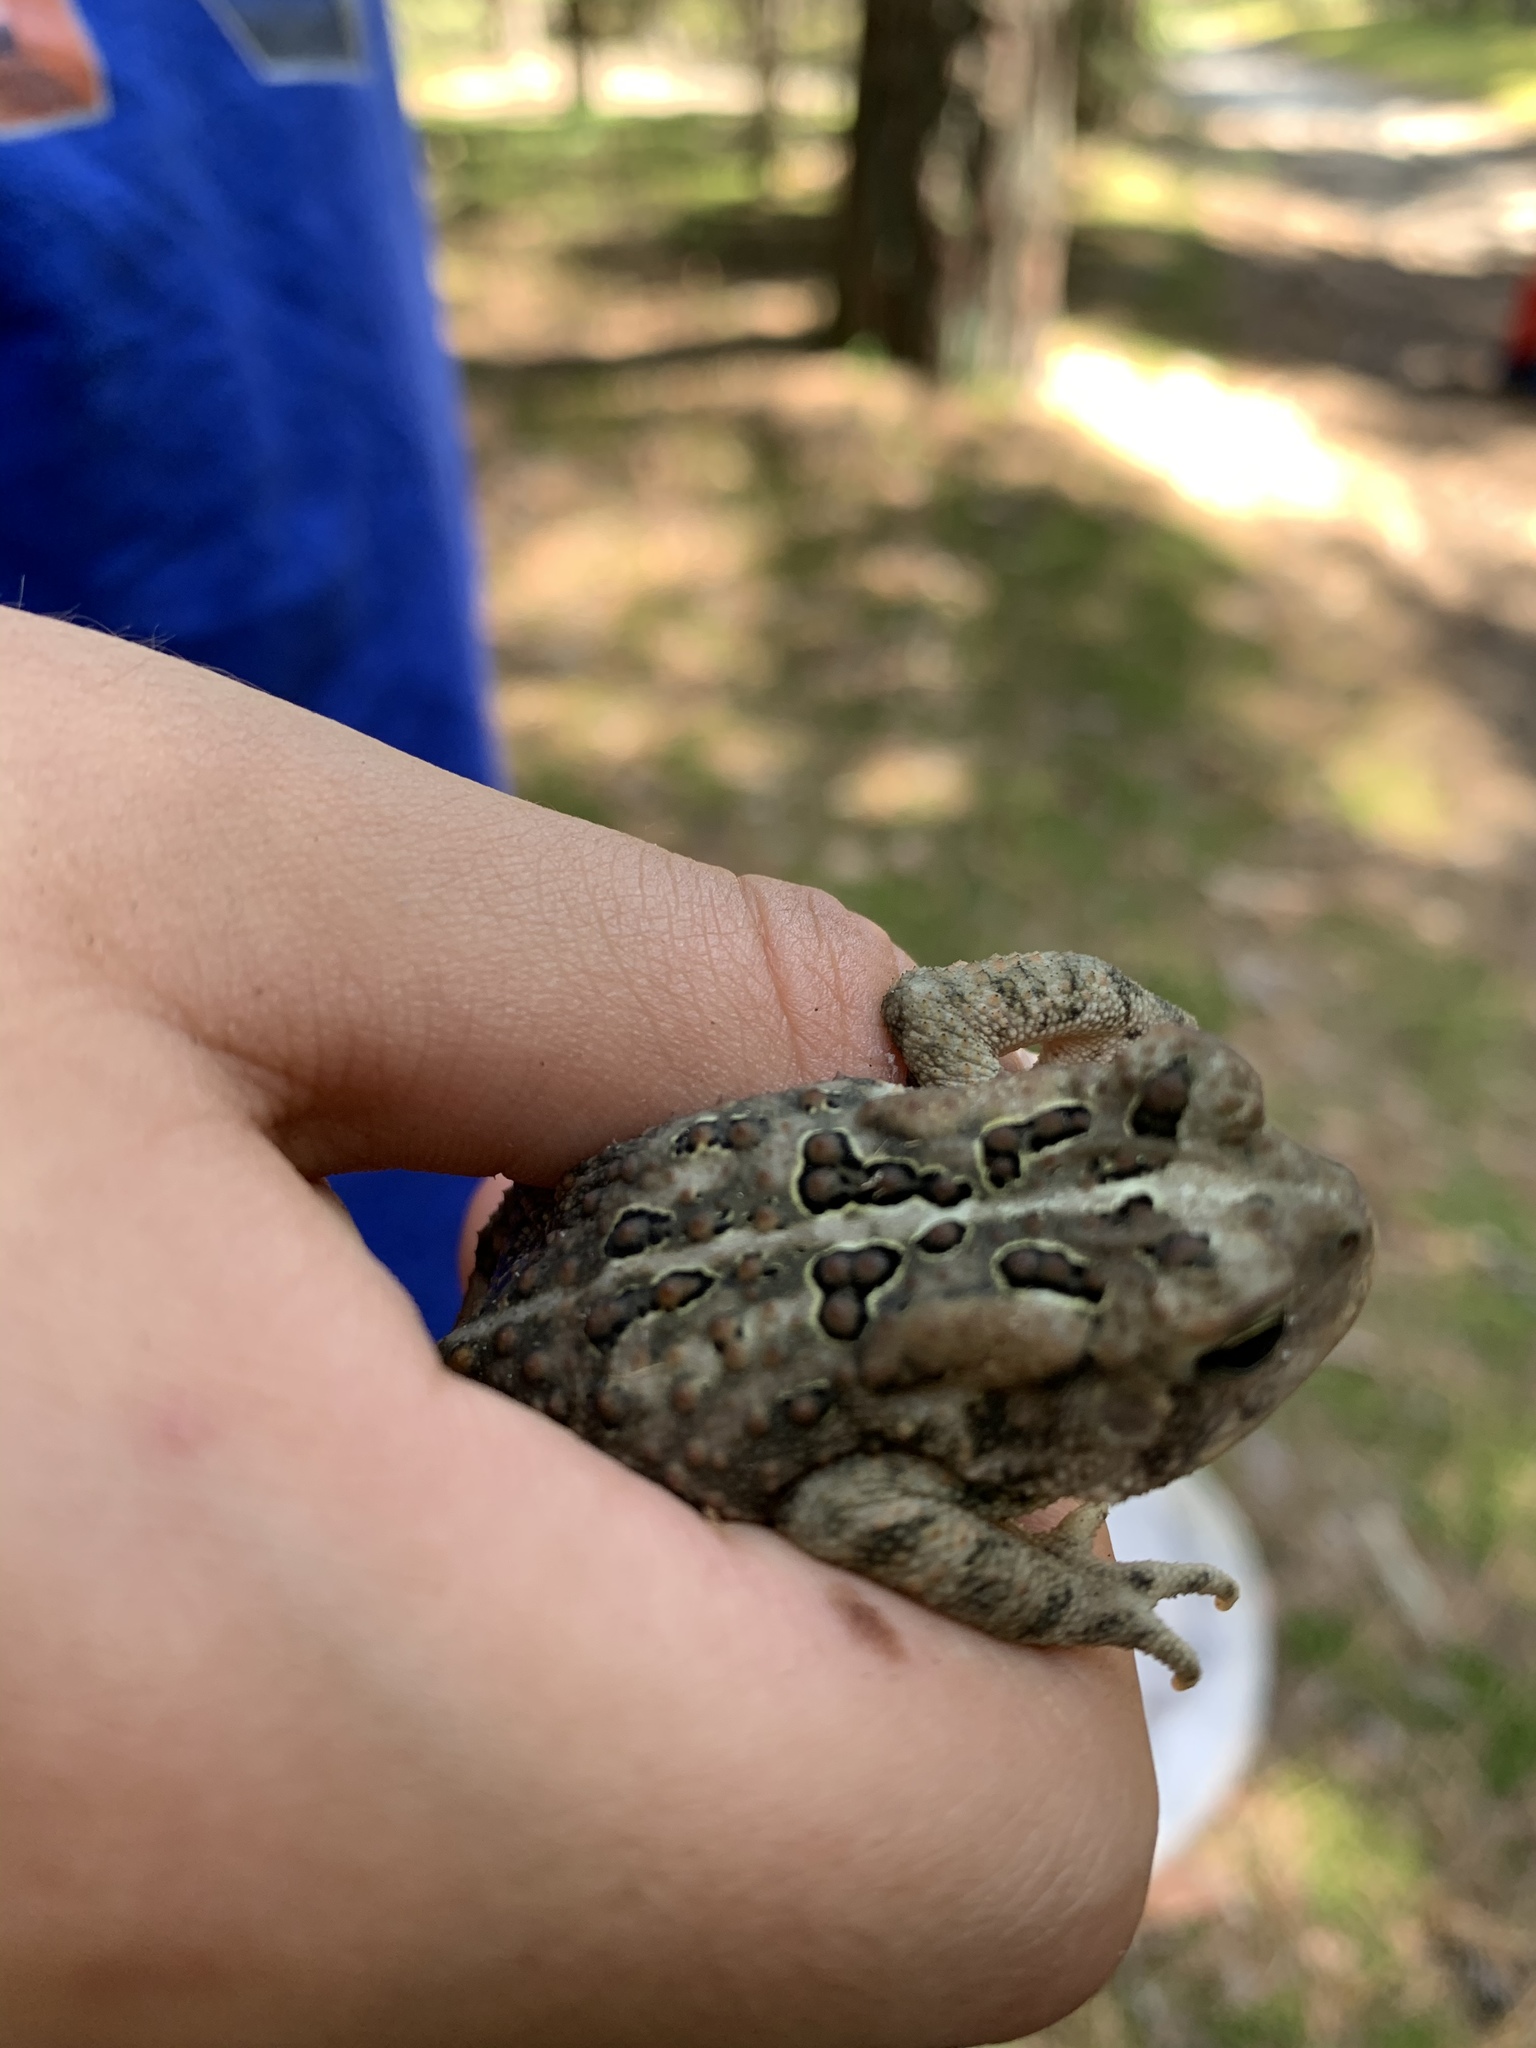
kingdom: Animalia
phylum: Chordata
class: Amphibia
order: Anura
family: Bufonidae
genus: Anaxyrus
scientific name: Anaxyrus americanus
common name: American toad
